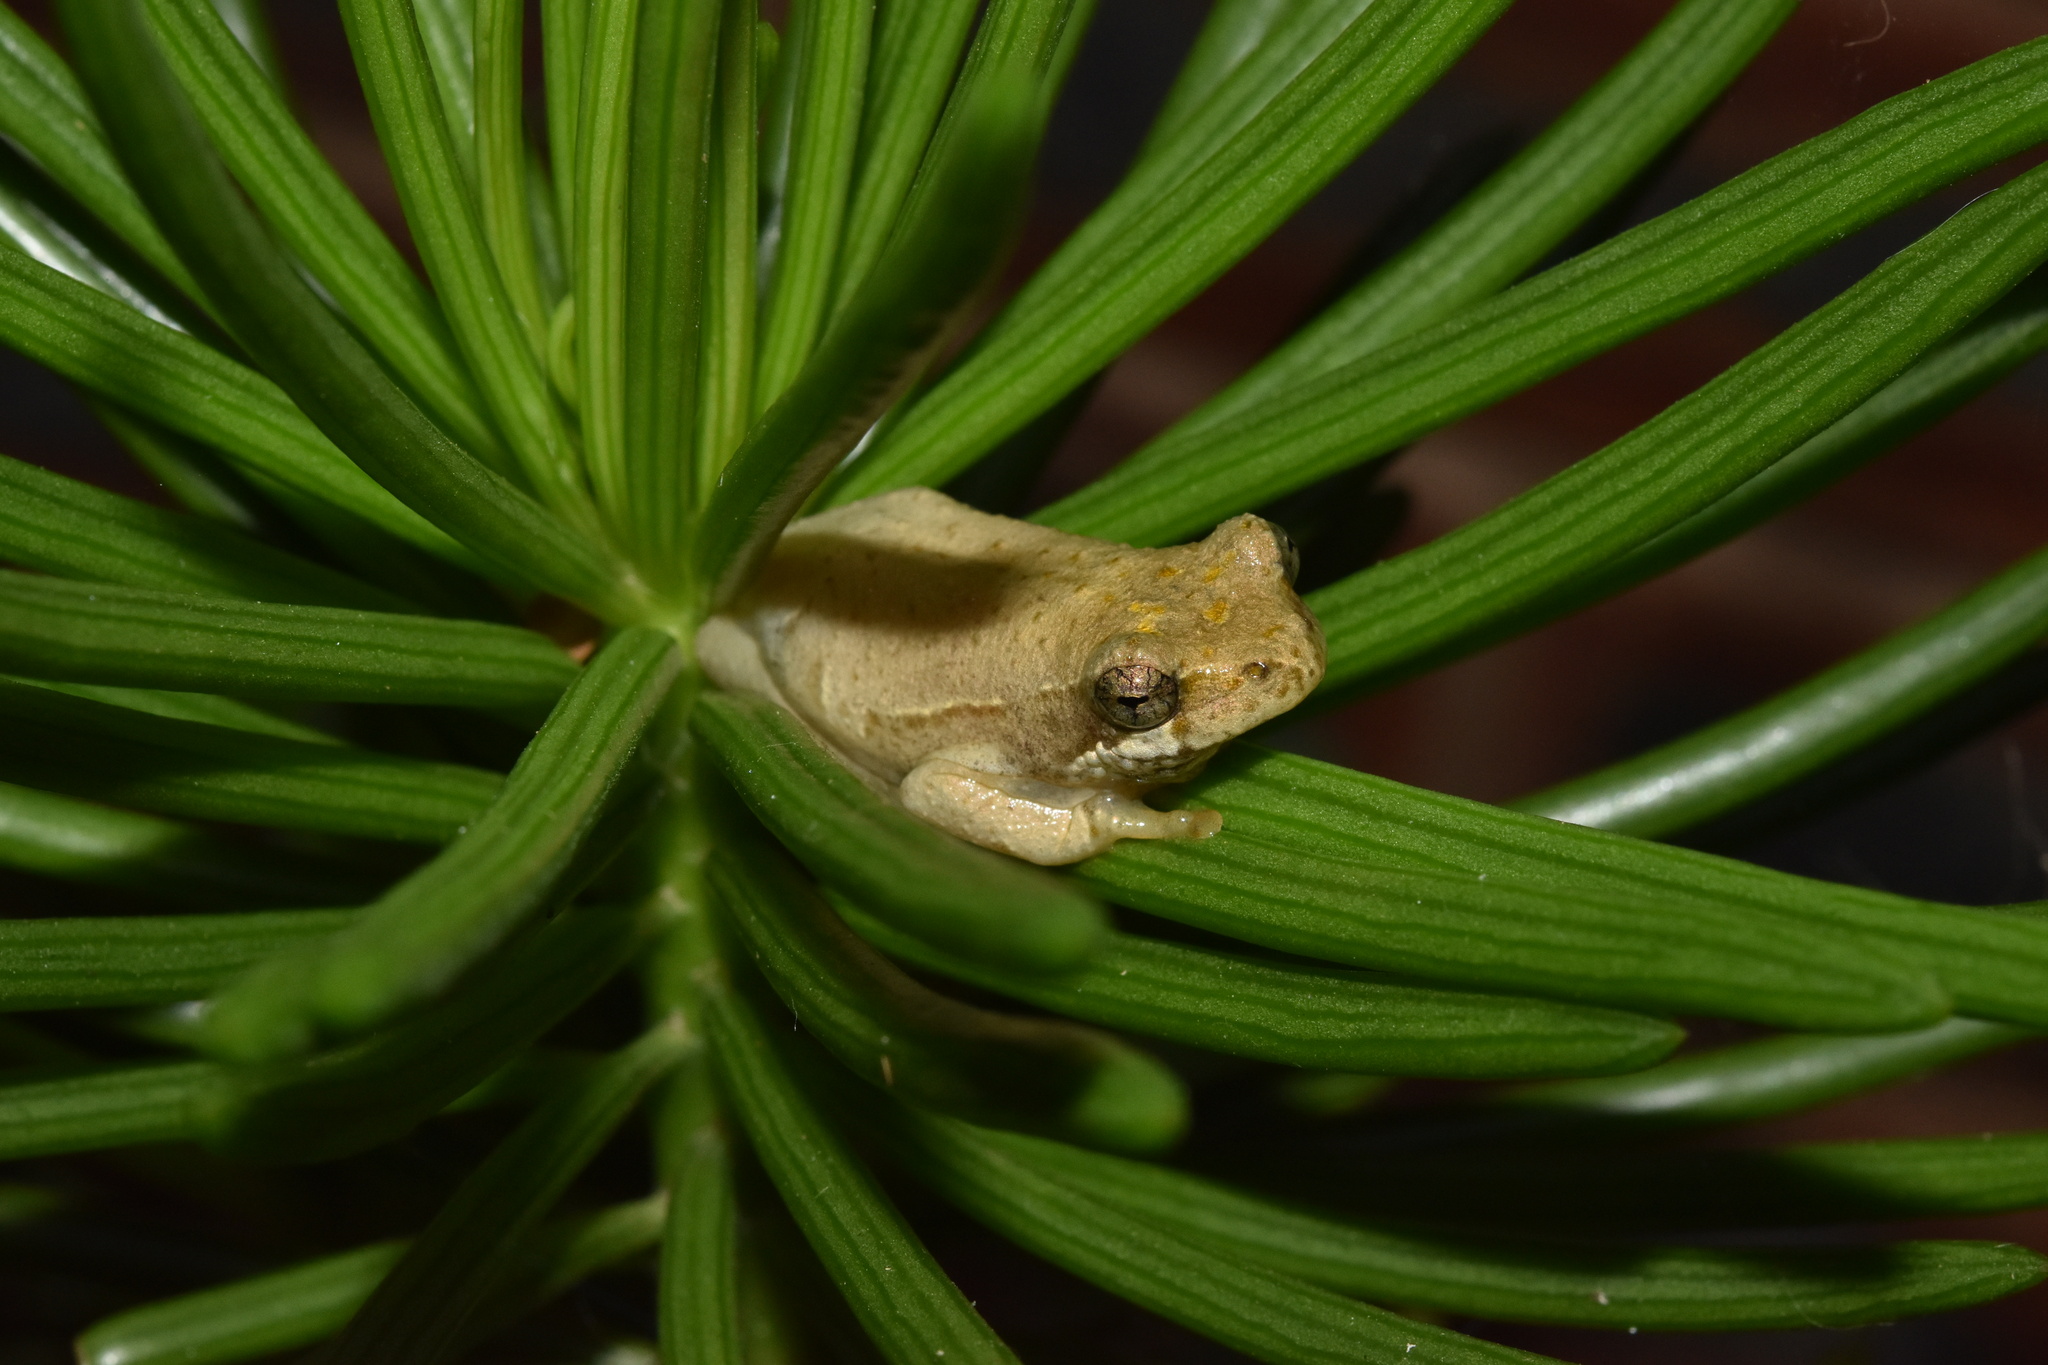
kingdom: Animalia
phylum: Chordata
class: Amphibia
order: Anura
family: Hyperoliidae
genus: Hyperolius
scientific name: Hyperolius marmoratus
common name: Painted reed frog
